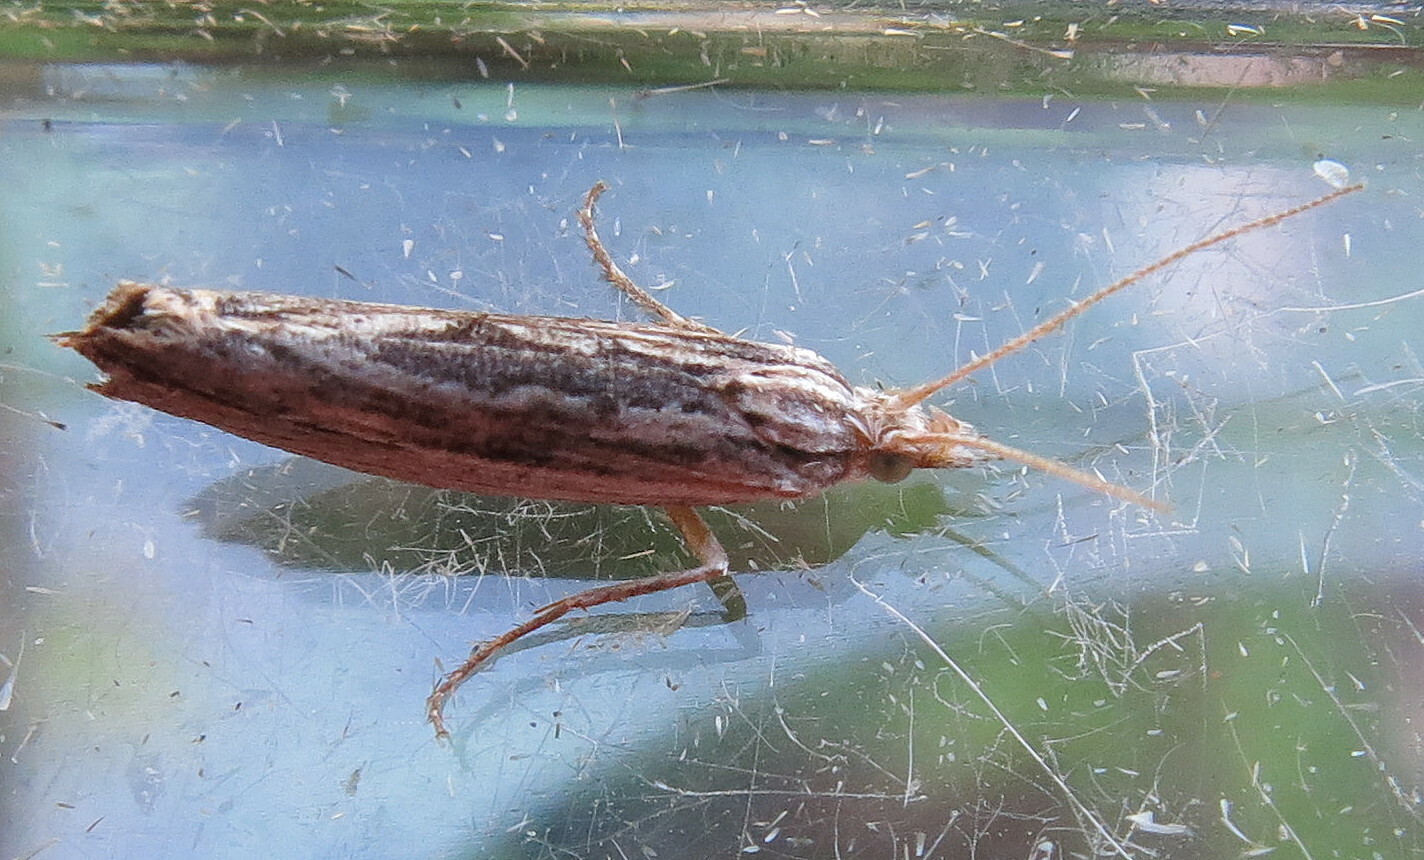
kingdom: Animalia
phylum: Arthropoda
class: Insecta
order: Lepidoptera
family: Ypsolophidae
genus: Ypsolopha
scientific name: Ypsolopha scabrella
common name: Wainscot smudge
